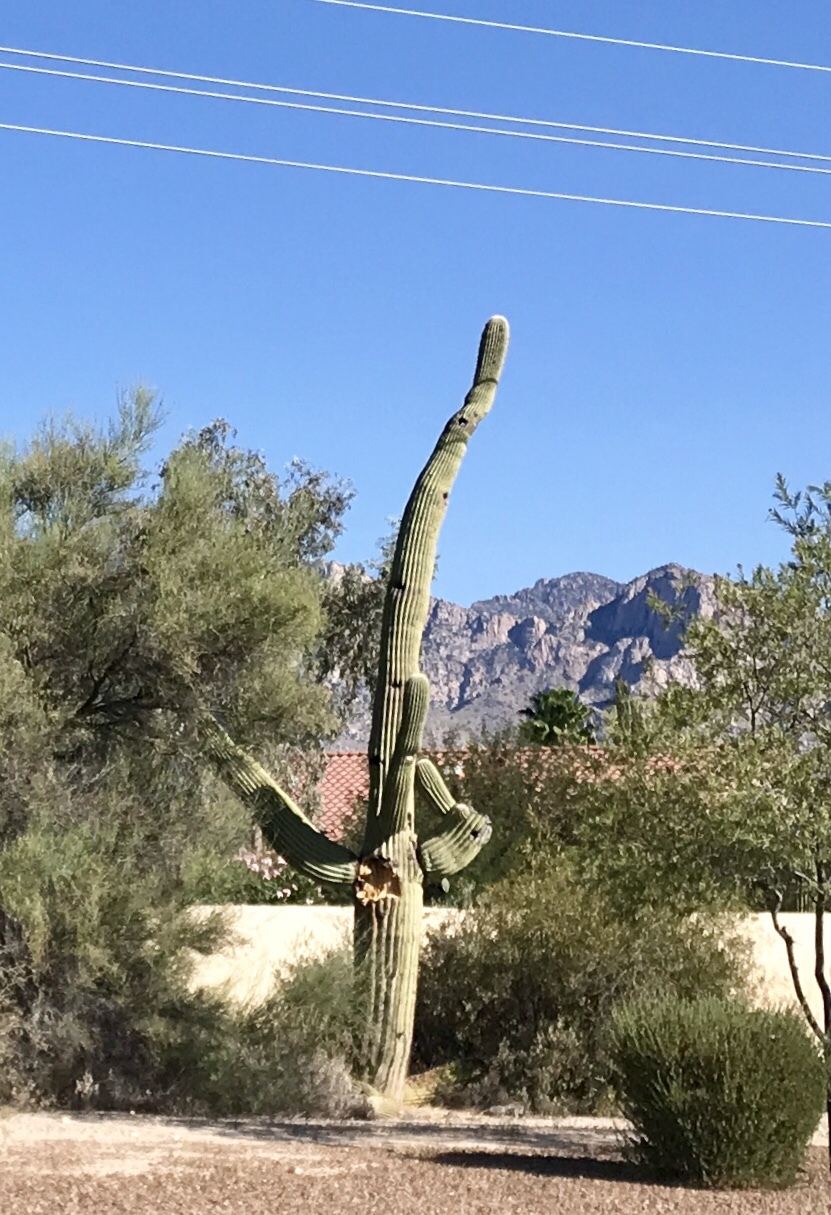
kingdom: Plantae
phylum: Tracheophyta
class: Magnoliopsida
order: Caryophyllales
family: Cactaceae
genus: Carnegiea
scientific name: Carnegiea gigantea
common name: Saguaro
